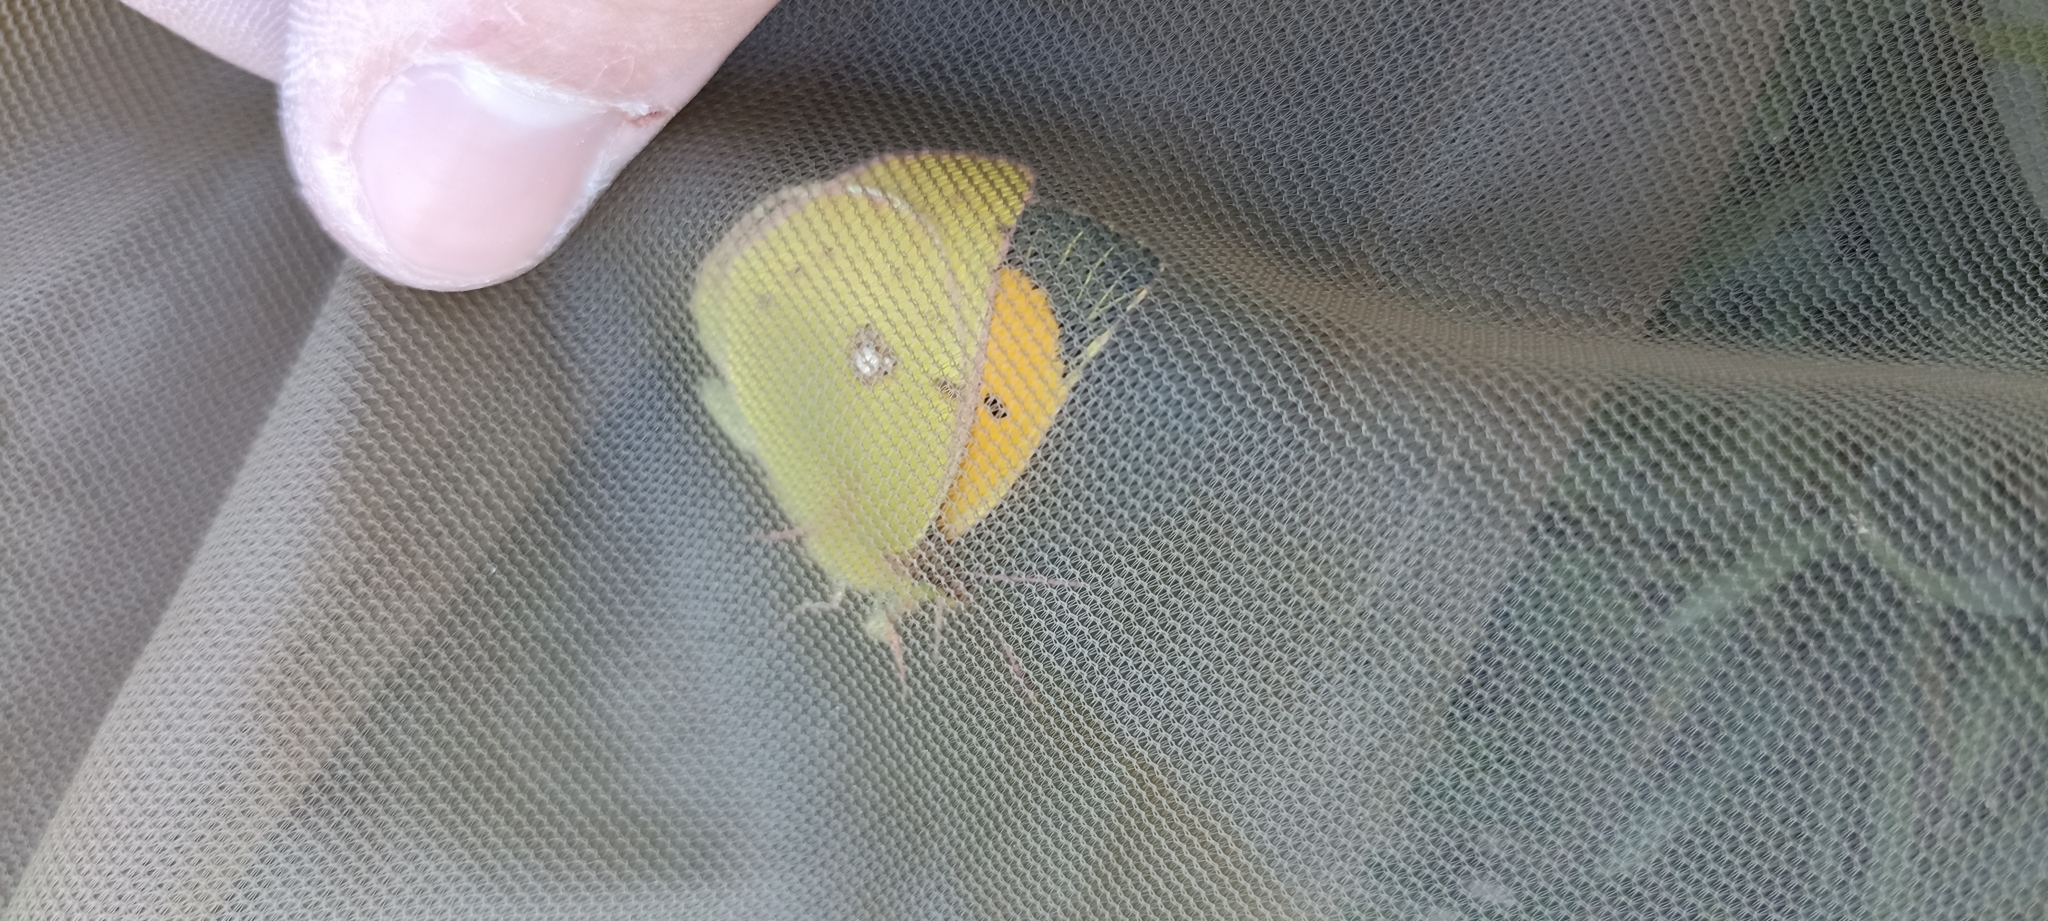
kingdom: Animalia
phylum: Arthropoda
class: Insecta
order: Lepidoptera
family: Pieridae
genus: Colias
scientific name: Colias croceus
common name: Clouded yellow
